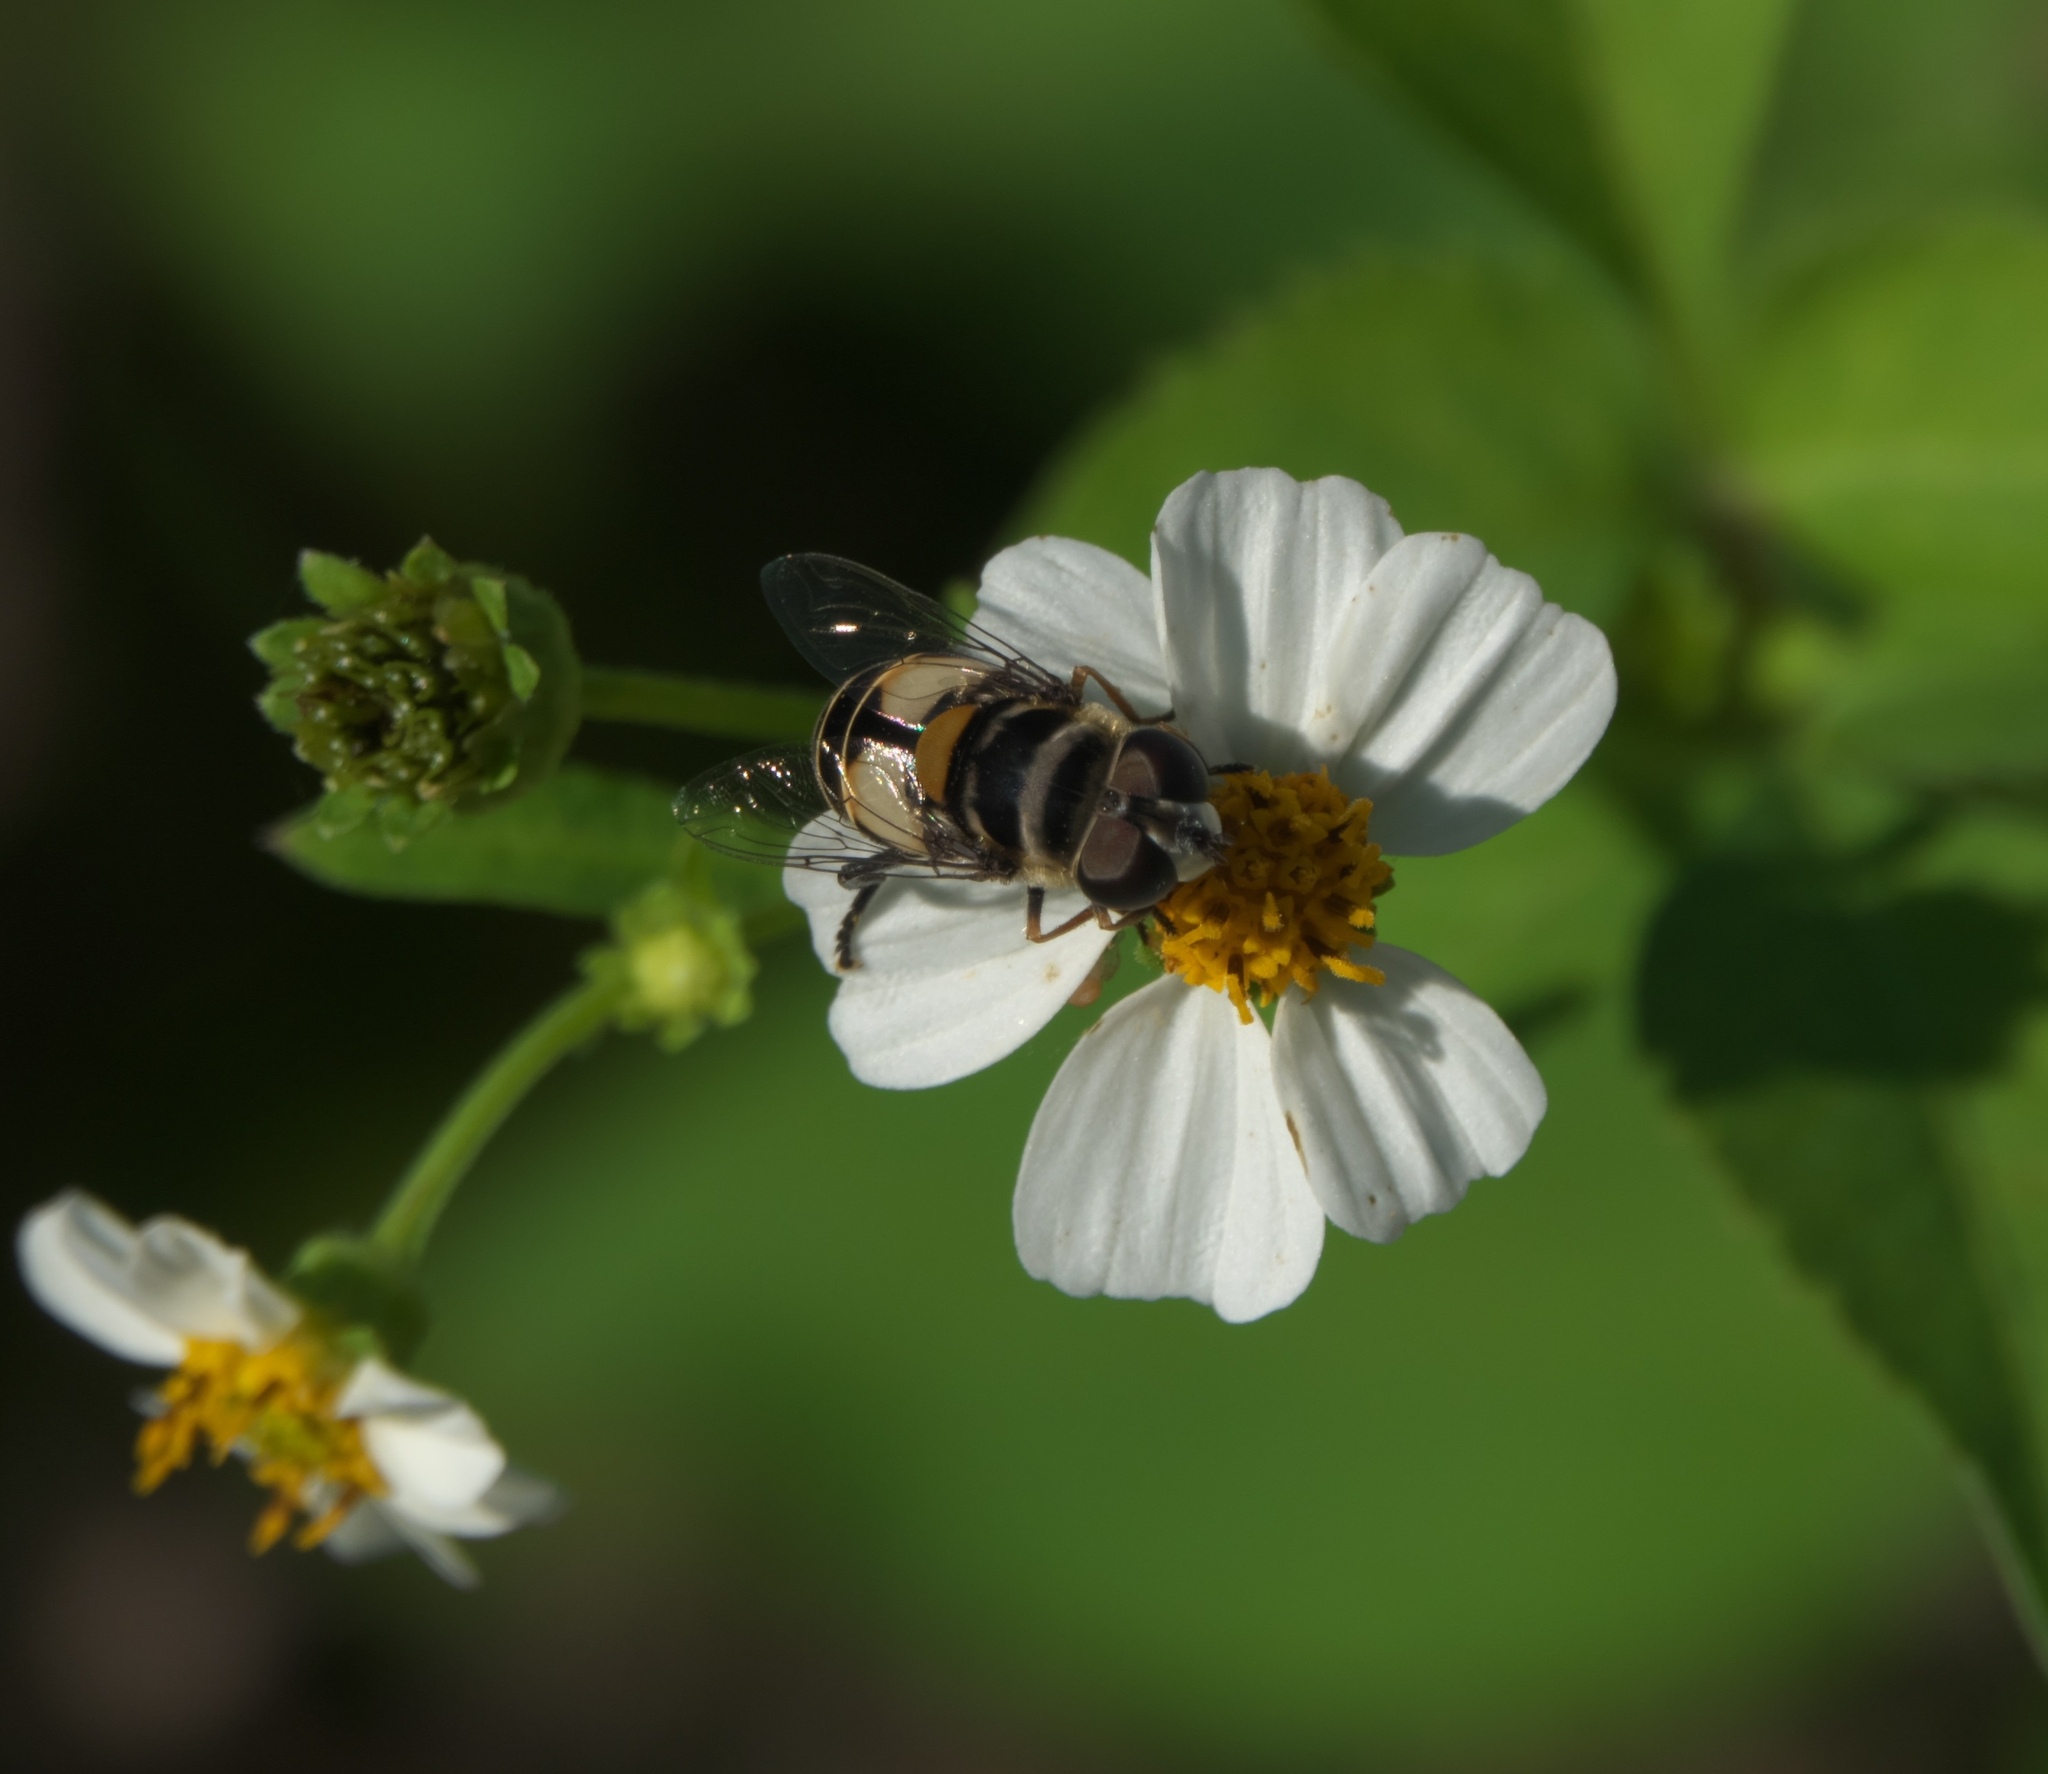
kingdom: Animalia
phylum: Arthropoda
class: Insecta
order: Diptera
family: Syrphidae
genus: Palpada
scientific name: Palpada albifrons
